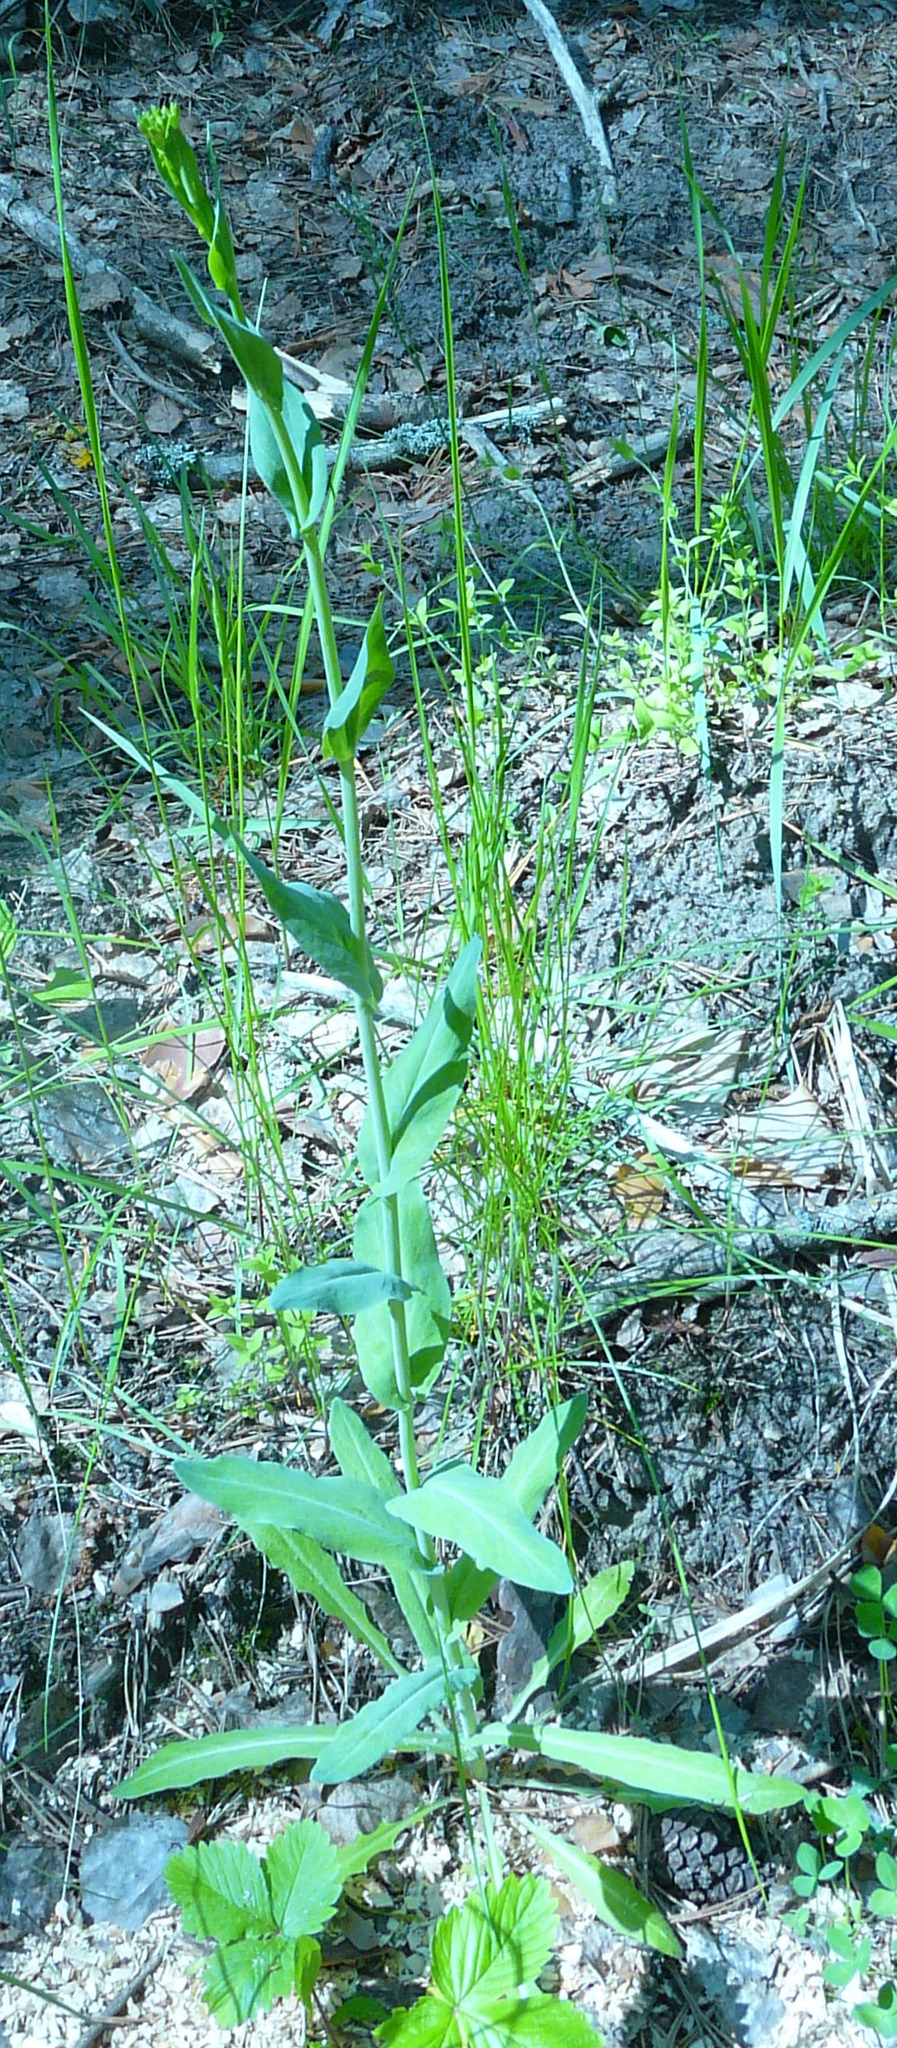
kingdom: Plantae
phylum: Tracheophyta
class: Magnoliopsida
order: Brassicales
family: Brassicaceae
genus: Turritis
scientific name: Turritis glabra
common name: Tower rockcress
